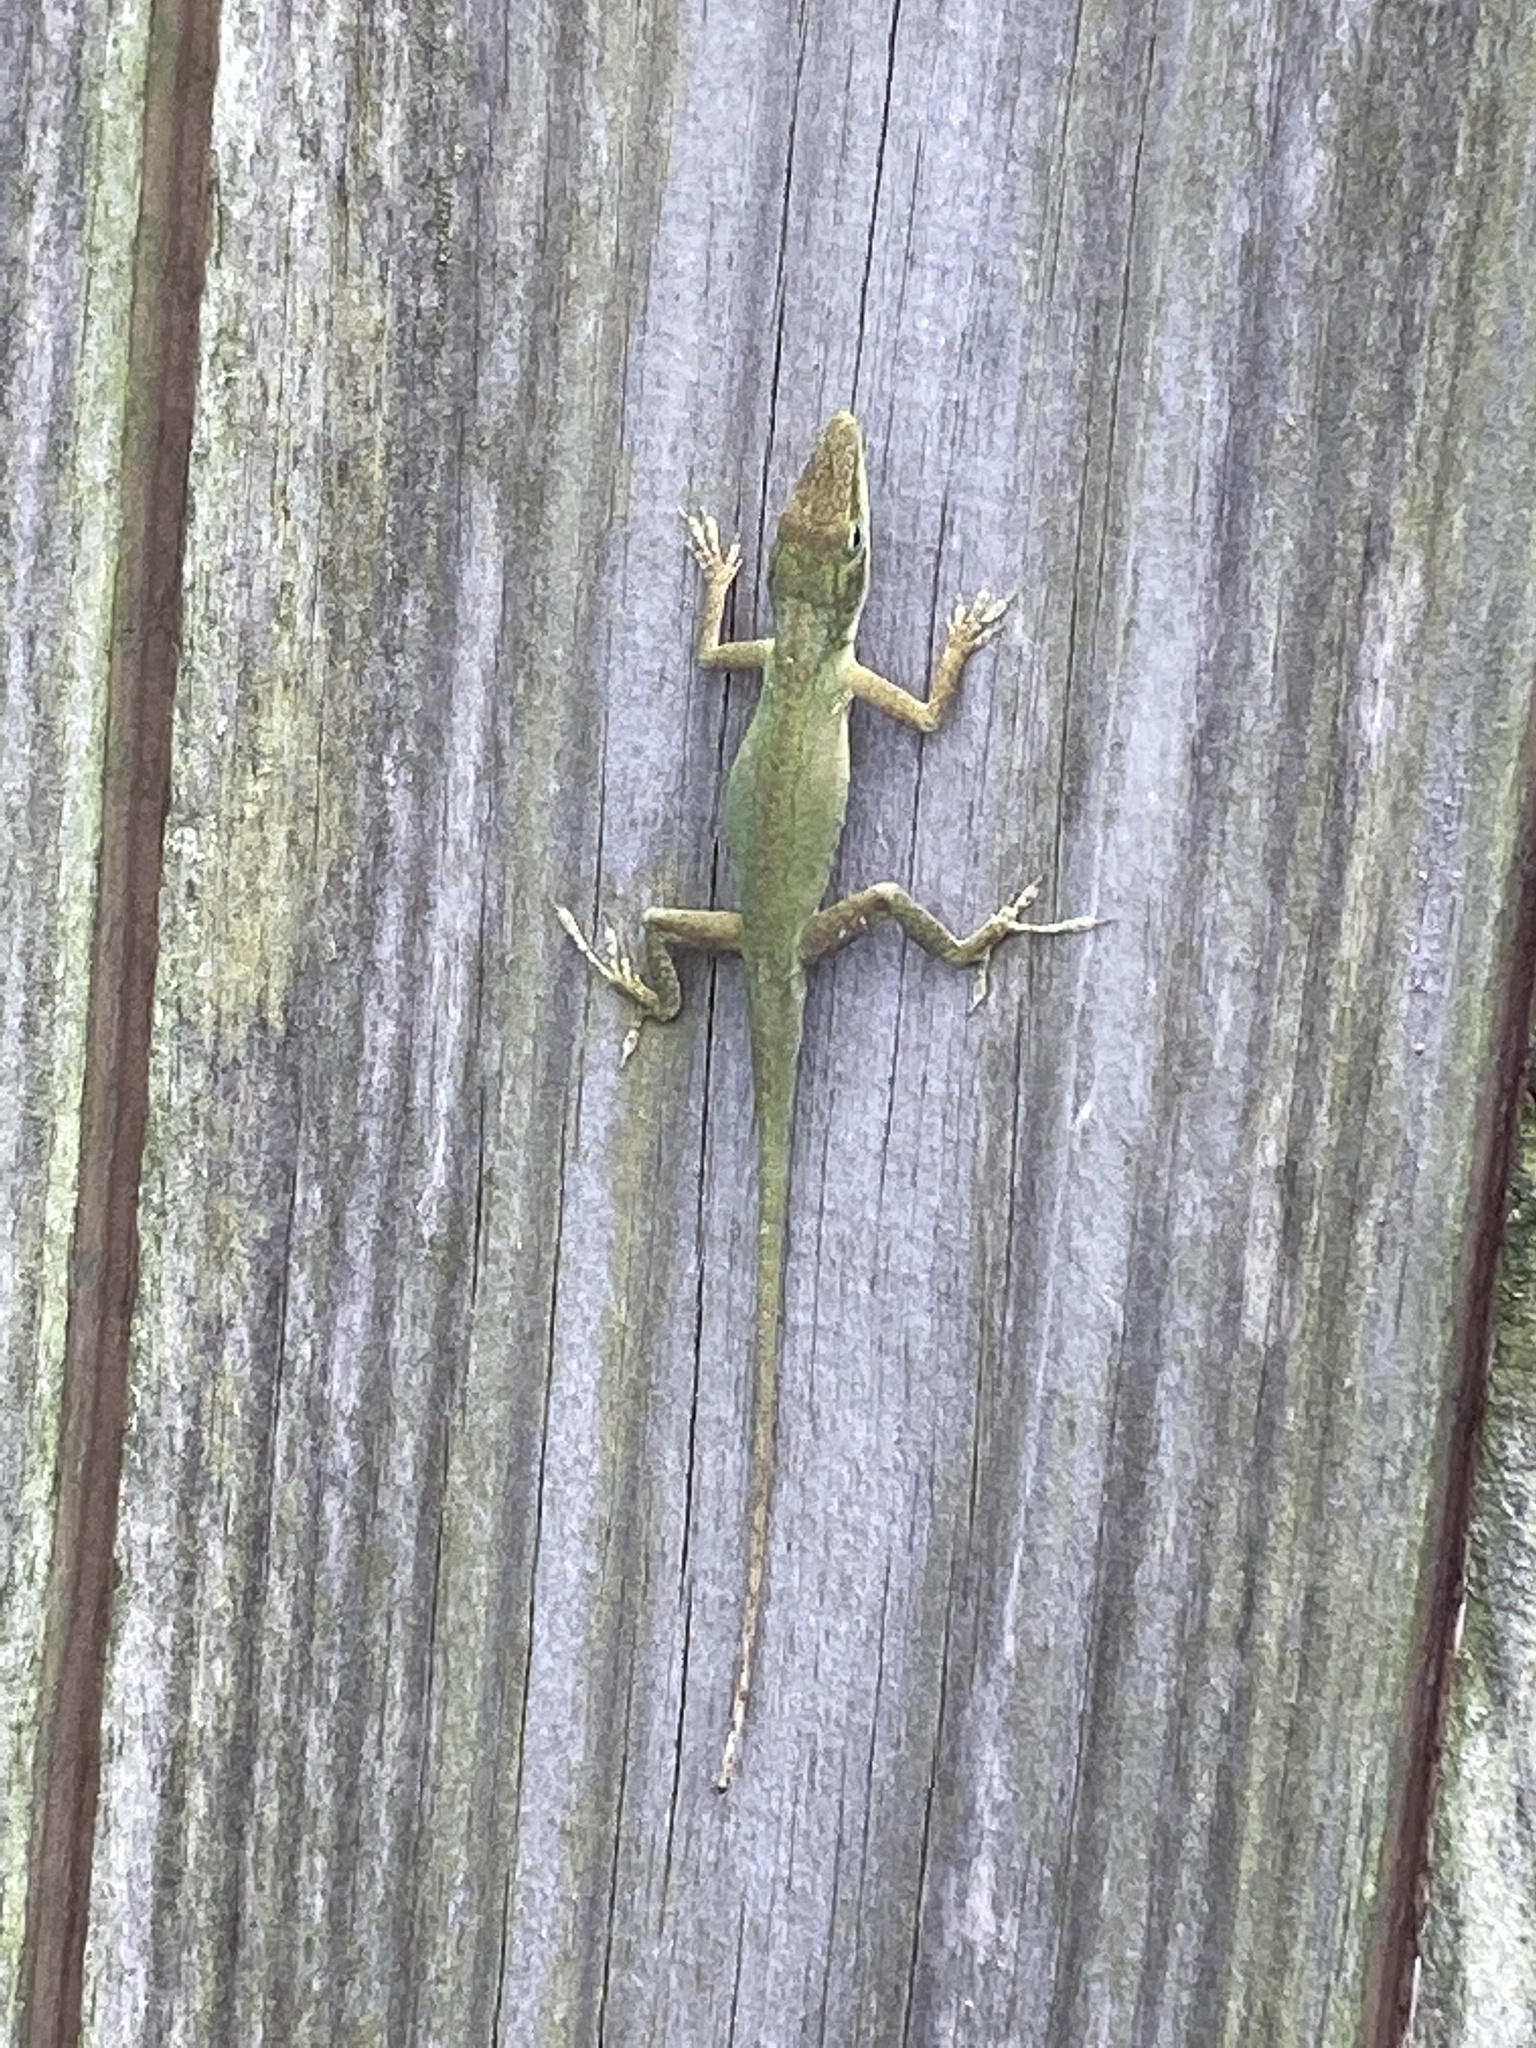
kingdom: Animalia
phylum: Chordata
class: Squamata
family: Dactyloidae
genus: Anolis
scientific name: Anolis carolinensis
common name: Green anole
